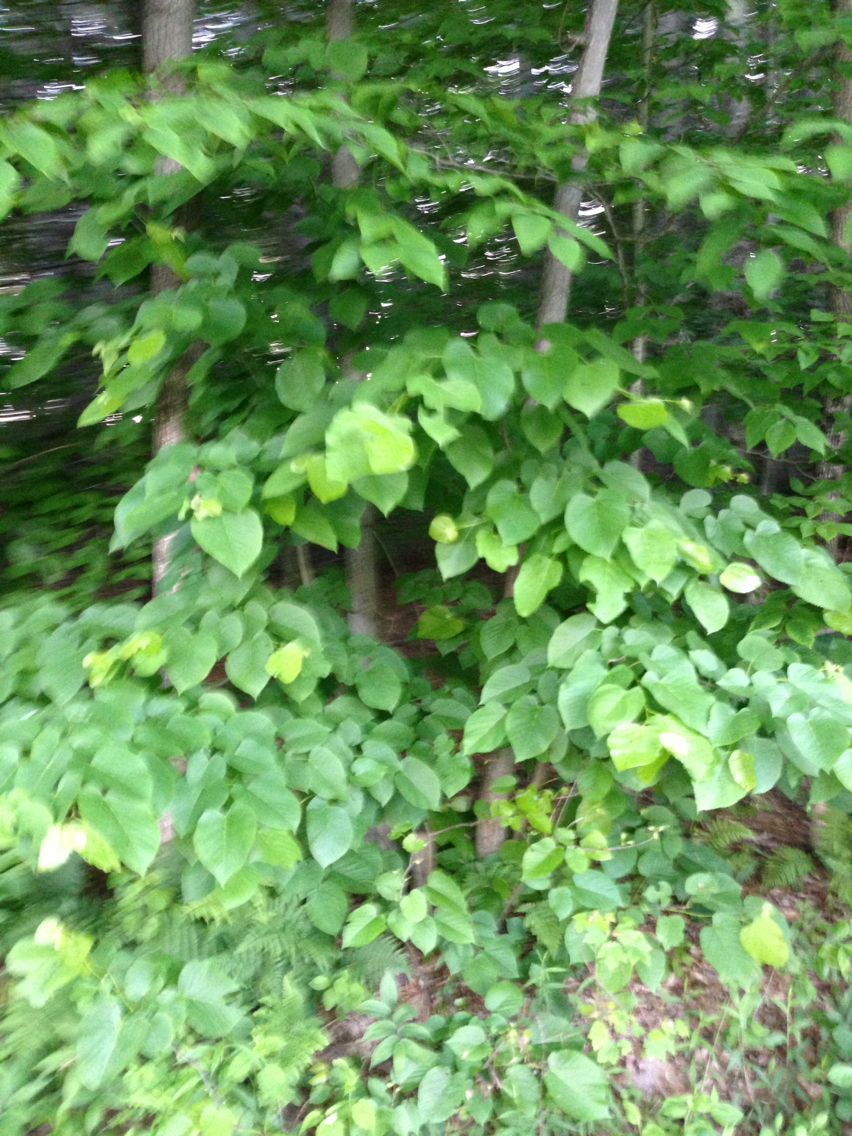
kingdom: Plantae
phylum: Tracheophyta
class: Magnoliopsida
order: Malvales
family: Malvaceae
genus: Tilia
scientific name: Tilia americana
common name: Basswood
